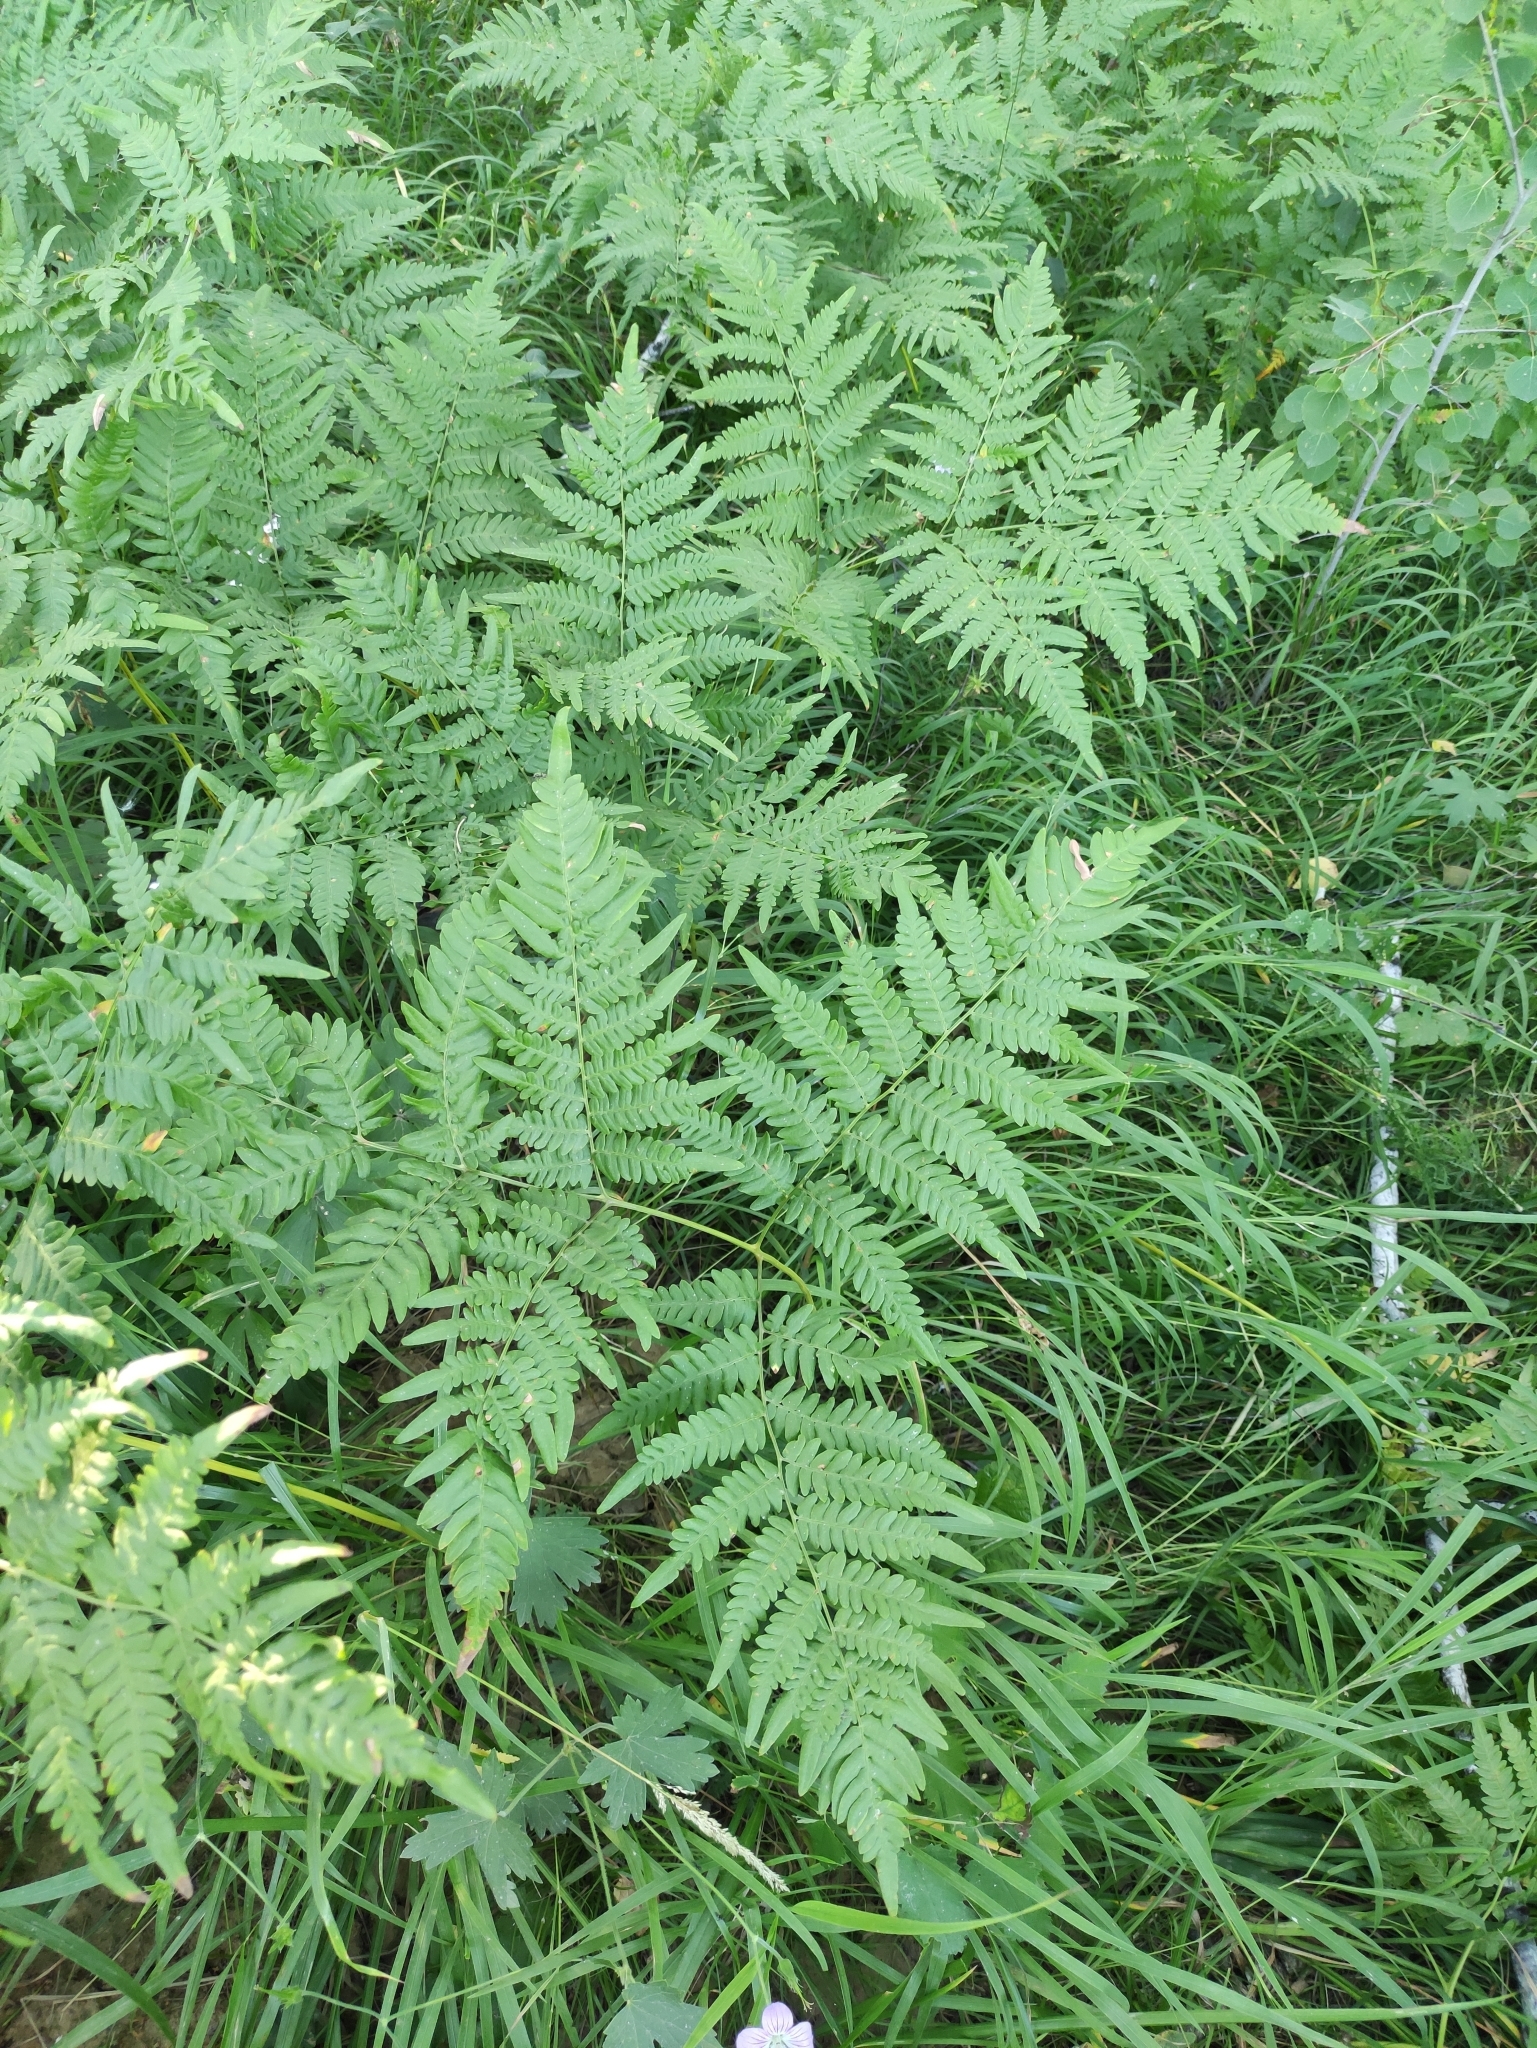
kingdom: Plantae
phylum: Tracheophyta
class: Polypodiopsida
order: Polypodiales
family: Dennstaedtiaceae
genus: Pteridium
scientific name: Pteridium aquilinum
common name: Bracken
